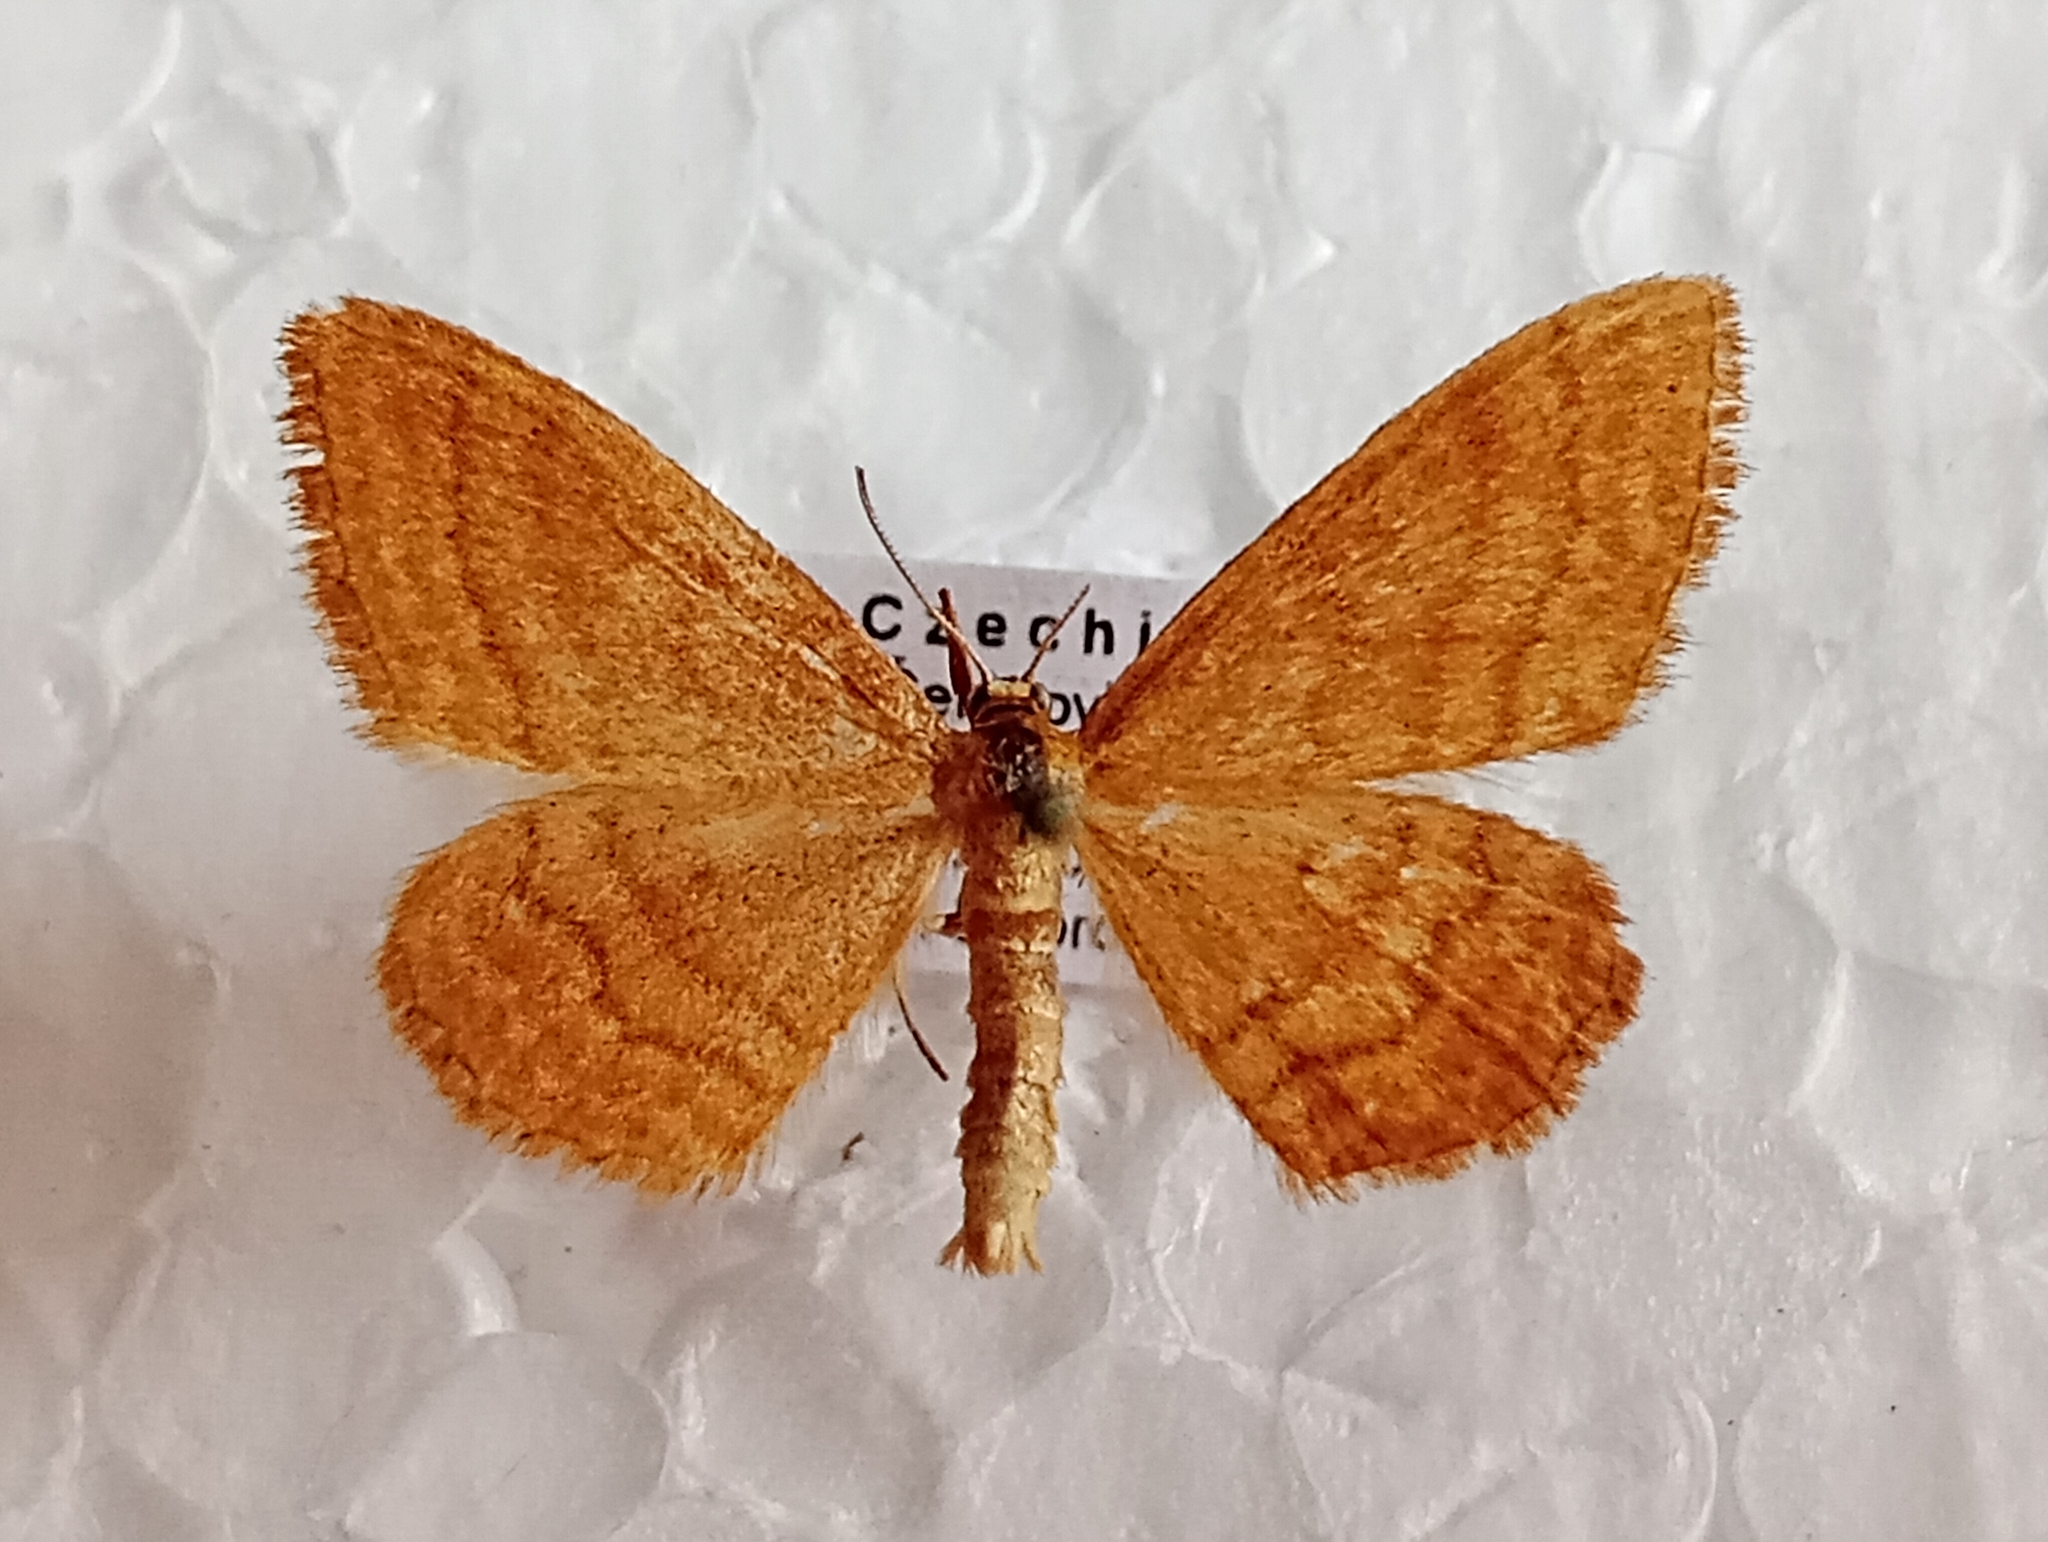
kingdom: Animalia
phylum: Arthropoda
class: Insecta
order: Lepidoptera
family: Geometridae
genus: Idaea
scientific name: Idaea ochrata
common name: Bright wave
